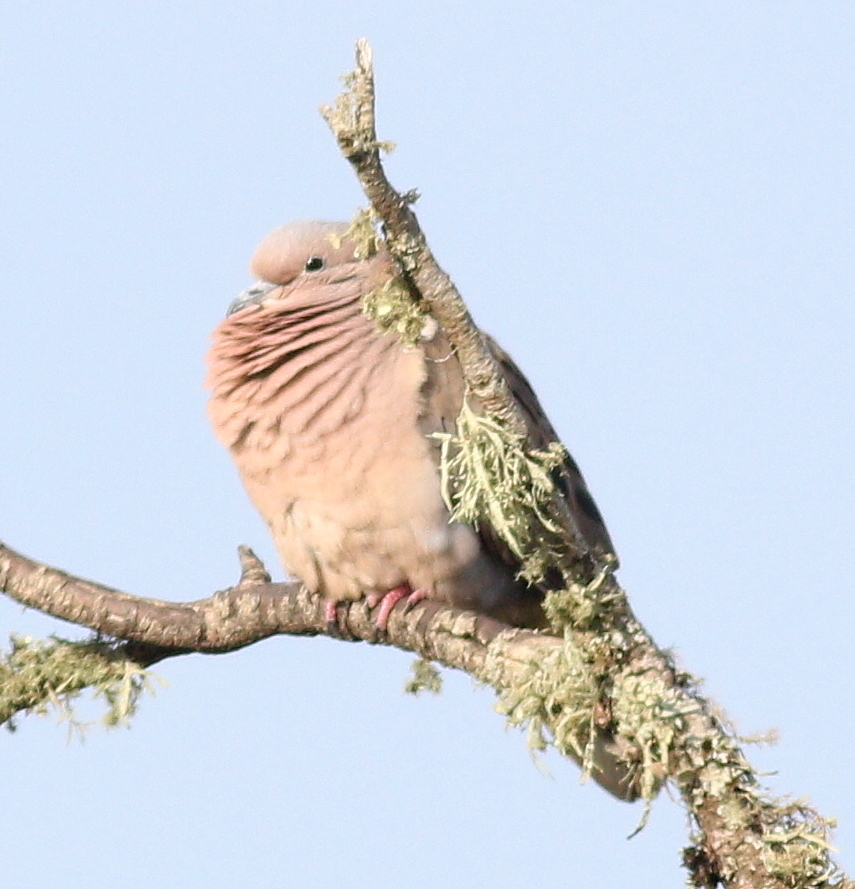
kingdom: Animalia
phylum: Chordata
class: Aves
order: Columbiformes
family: Columbidae
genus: Zenaida
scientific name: Zenaida auriculata
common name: Eared dove
